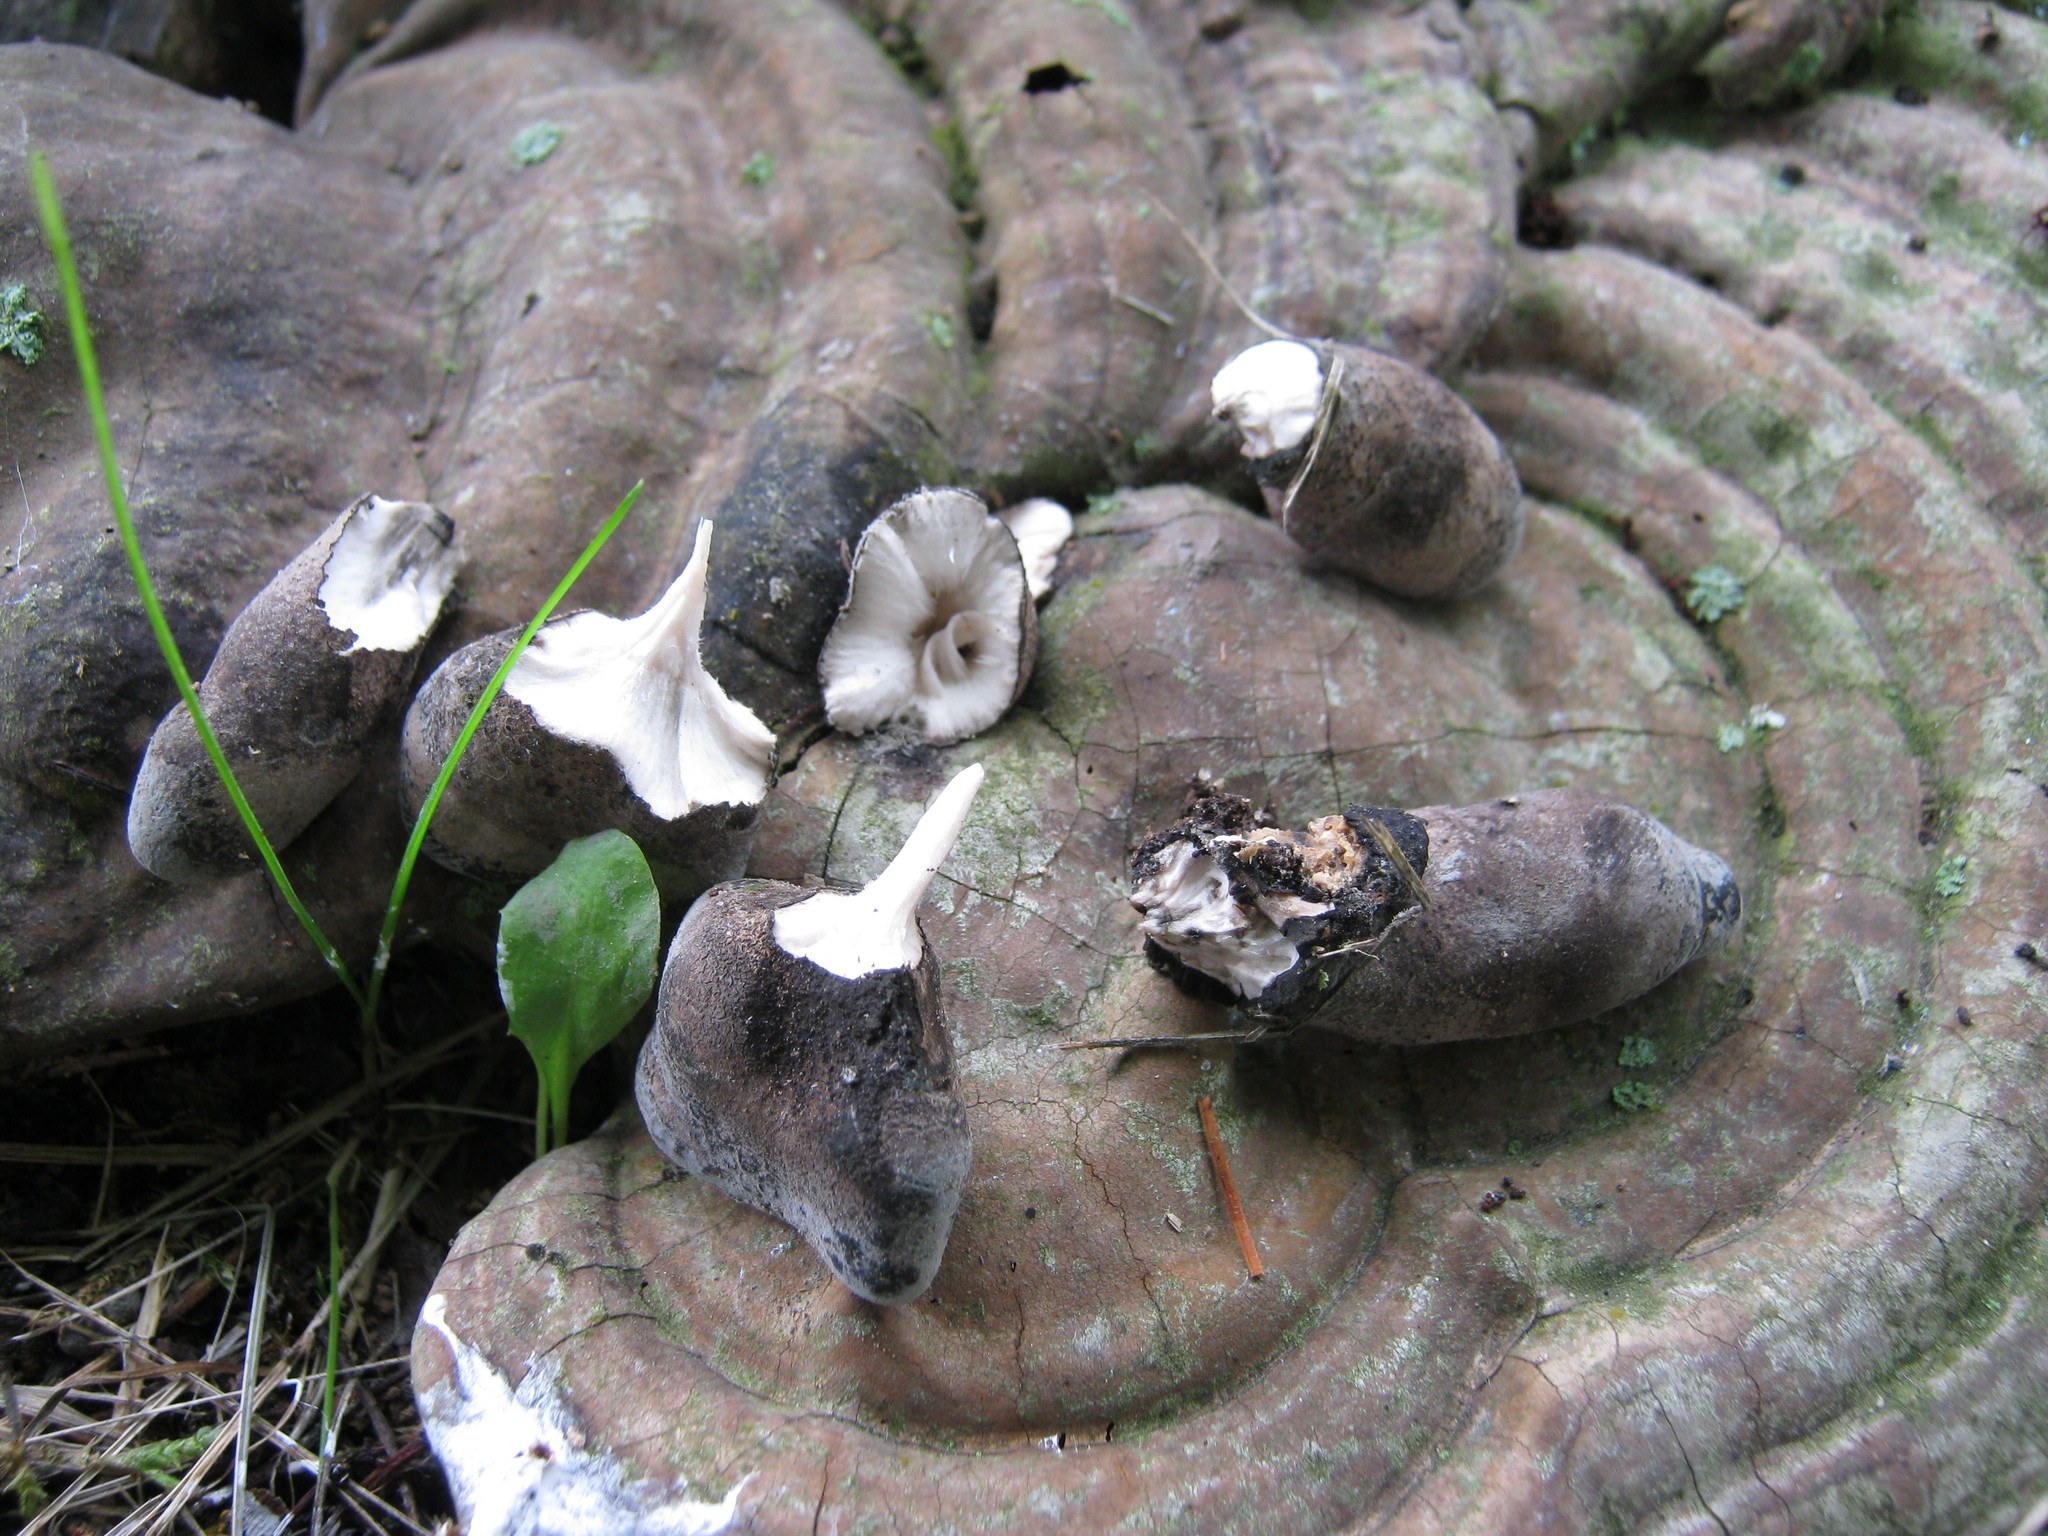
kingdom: Fungi
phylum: Ascomycota
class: Sordariomycetes
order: Xylariales
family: Xylariaceae
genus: Xylaria
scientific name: Xylaria polymorpha
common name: Dead man's fingers
